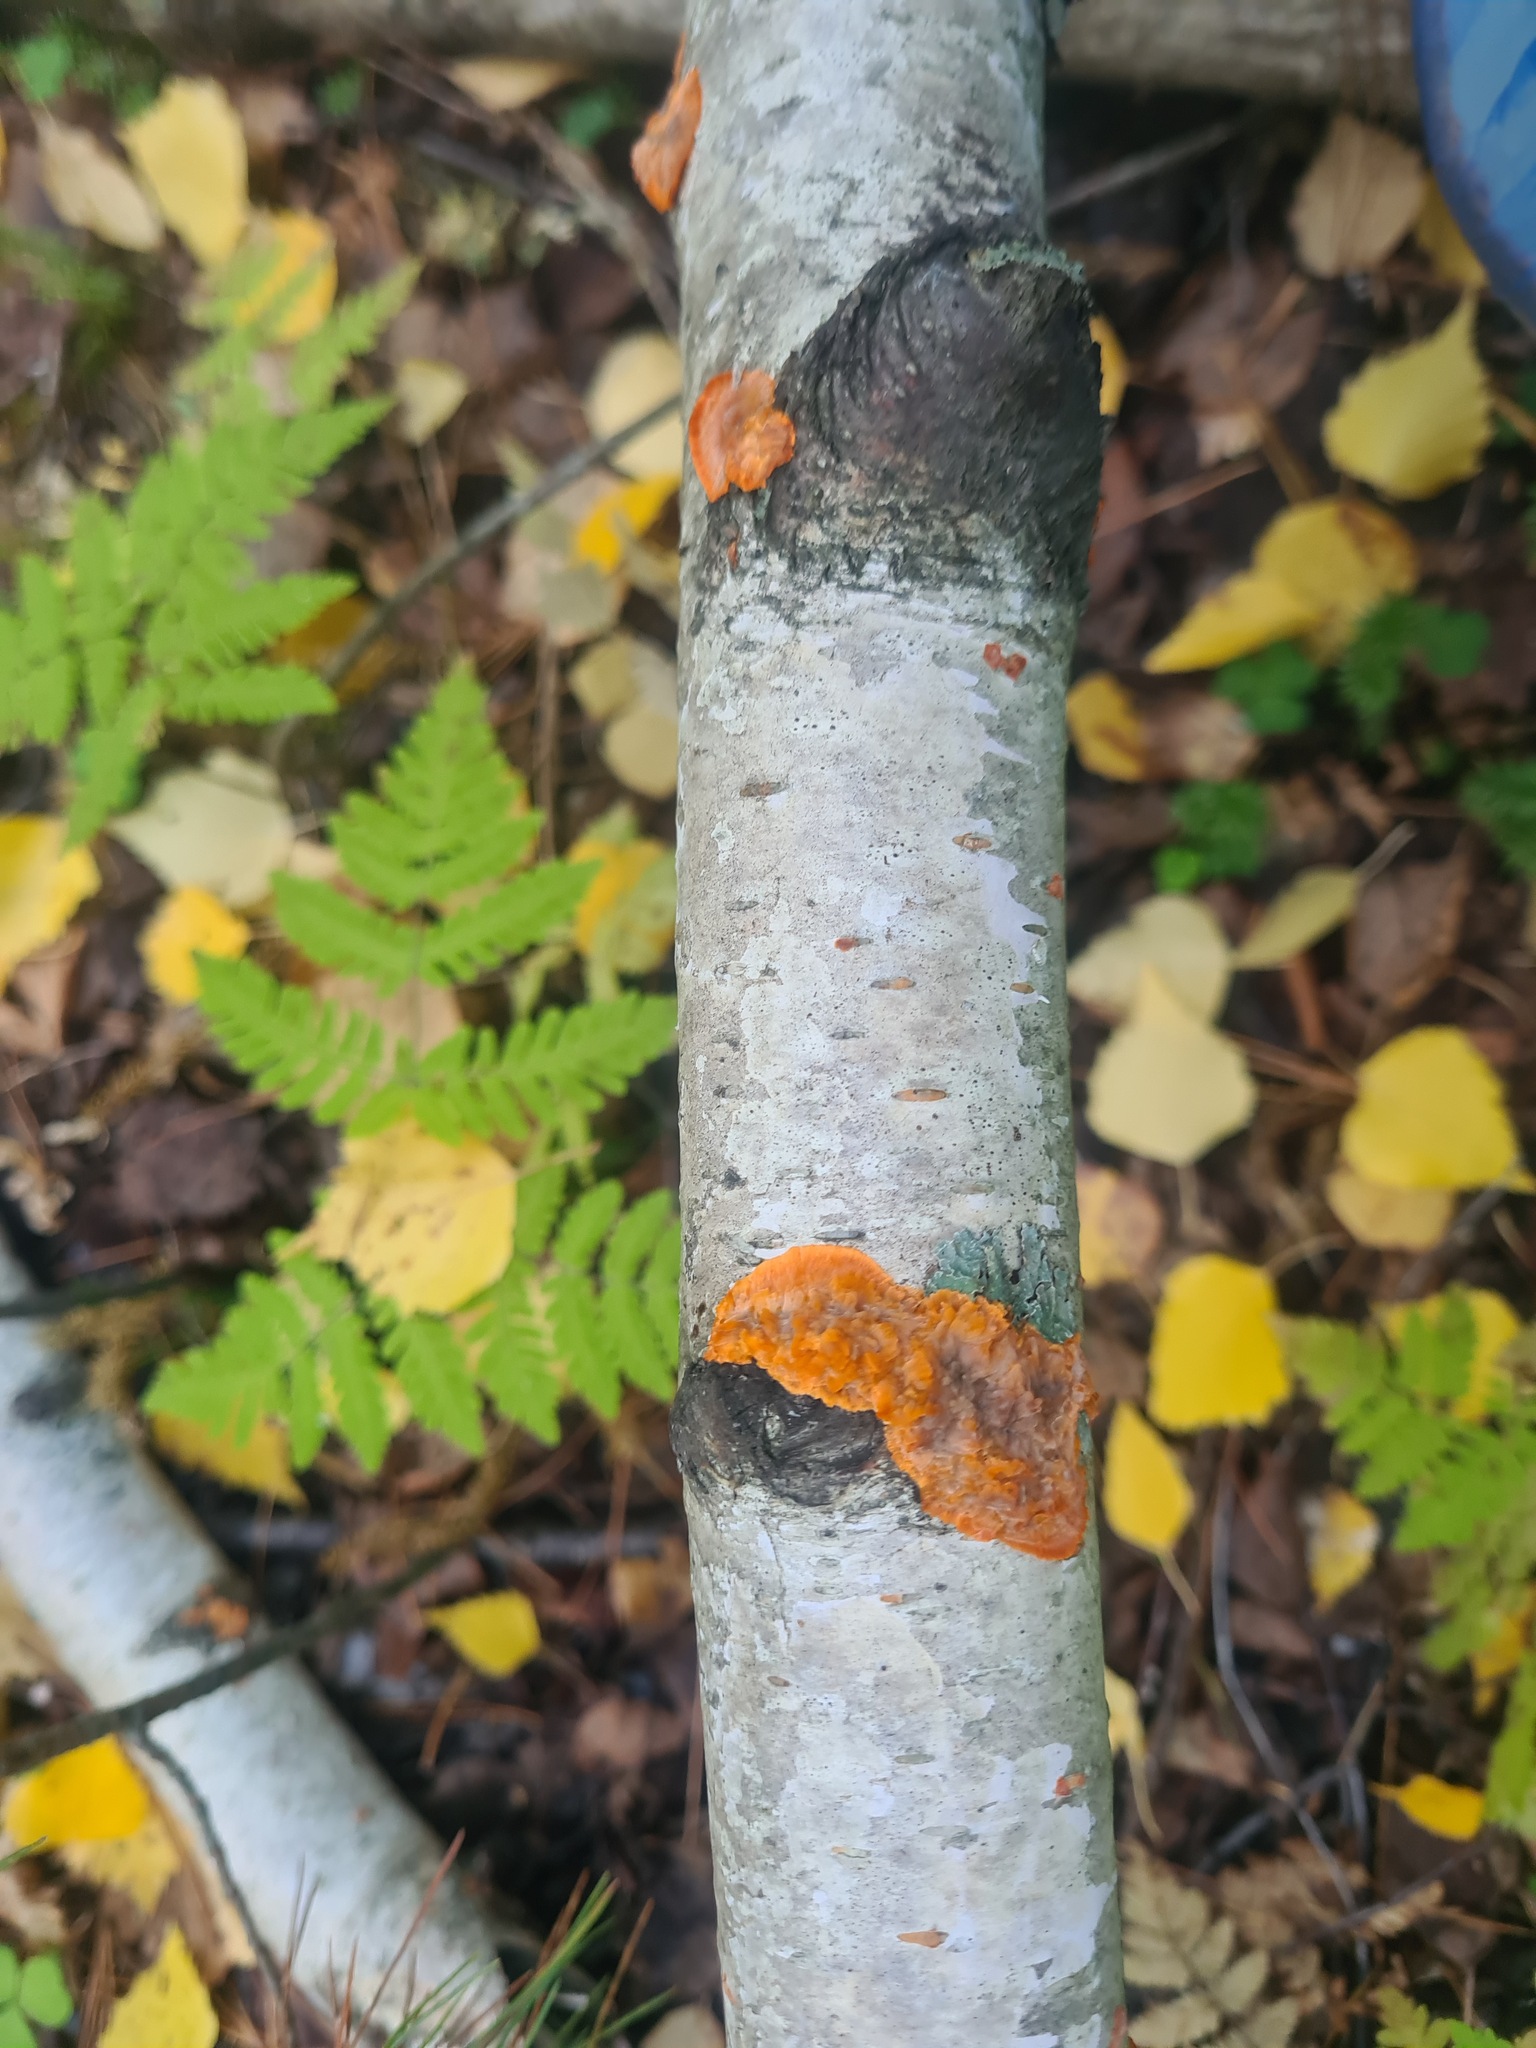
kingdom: Fungi
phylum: Basidiomycota
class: Agaricomycetes
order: Polyporales
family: Meruliaceae
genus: Phlebia
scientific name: Phlebia radiata
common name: Wrinkled crust
